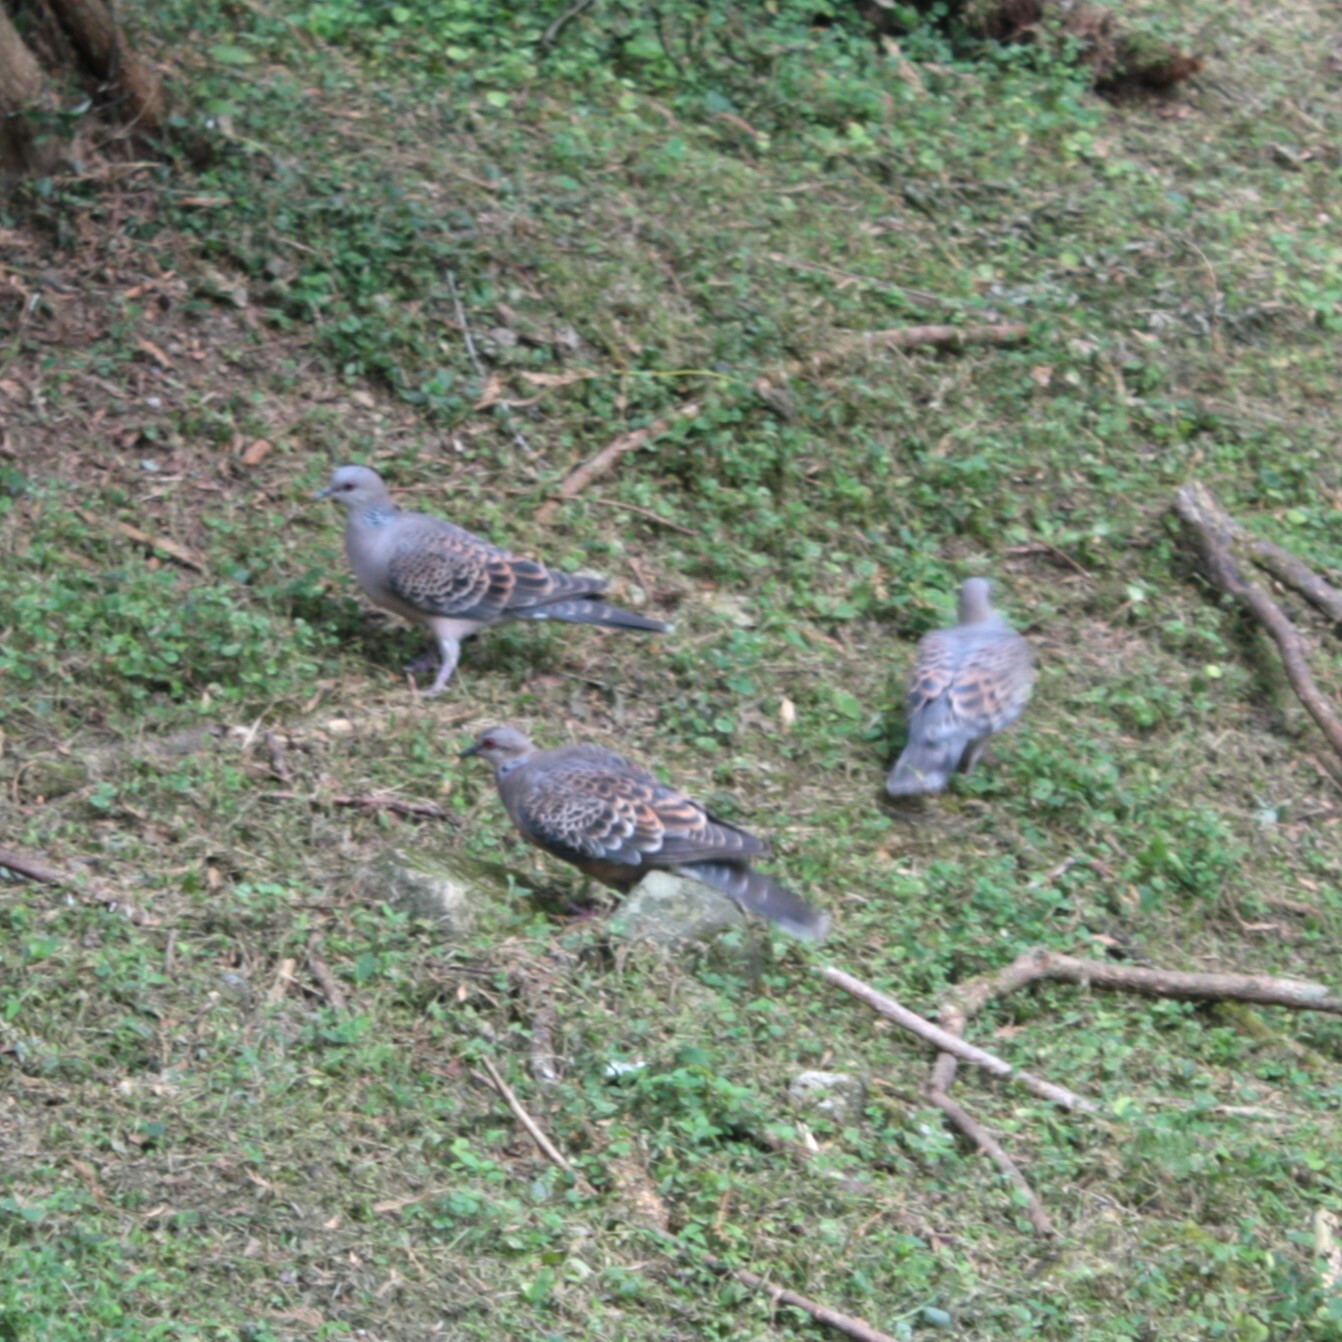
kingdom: Animalia
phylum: Chordata
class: Aves
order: Columbiformes
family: Columbidae
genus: Streptopelia
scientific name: Streptopelia orientalis
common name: Oriental turtle dove
